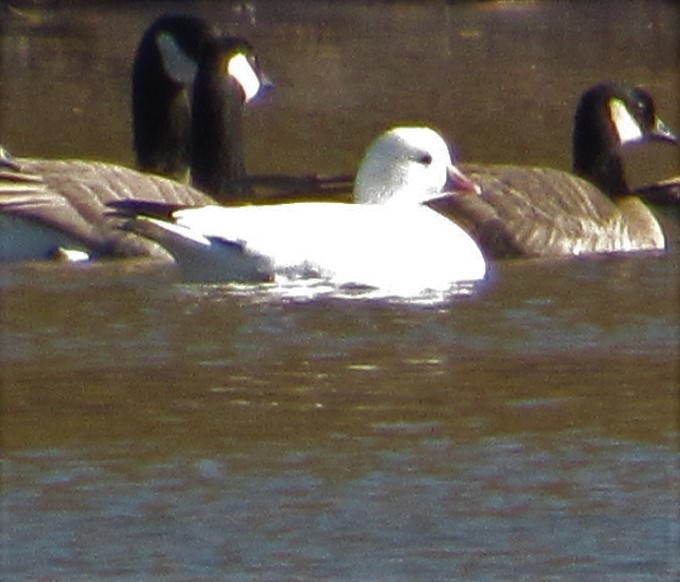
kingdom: Animalia
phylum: Chordata
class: Aves
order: Anseriformes
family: Anatidae
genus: Anser
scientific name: Anser rossii
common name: Ross's goose
